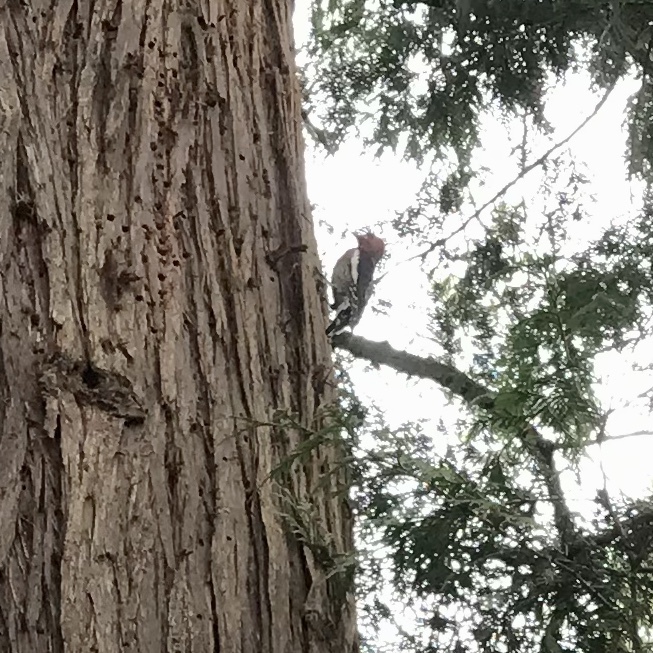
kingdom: Animalia
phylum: Chordata
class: Aves
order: Piciformes
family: Picidae
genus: Sphyrapicus
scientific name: Sphyrapicus ruber
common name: Red-breasted sapsucker
